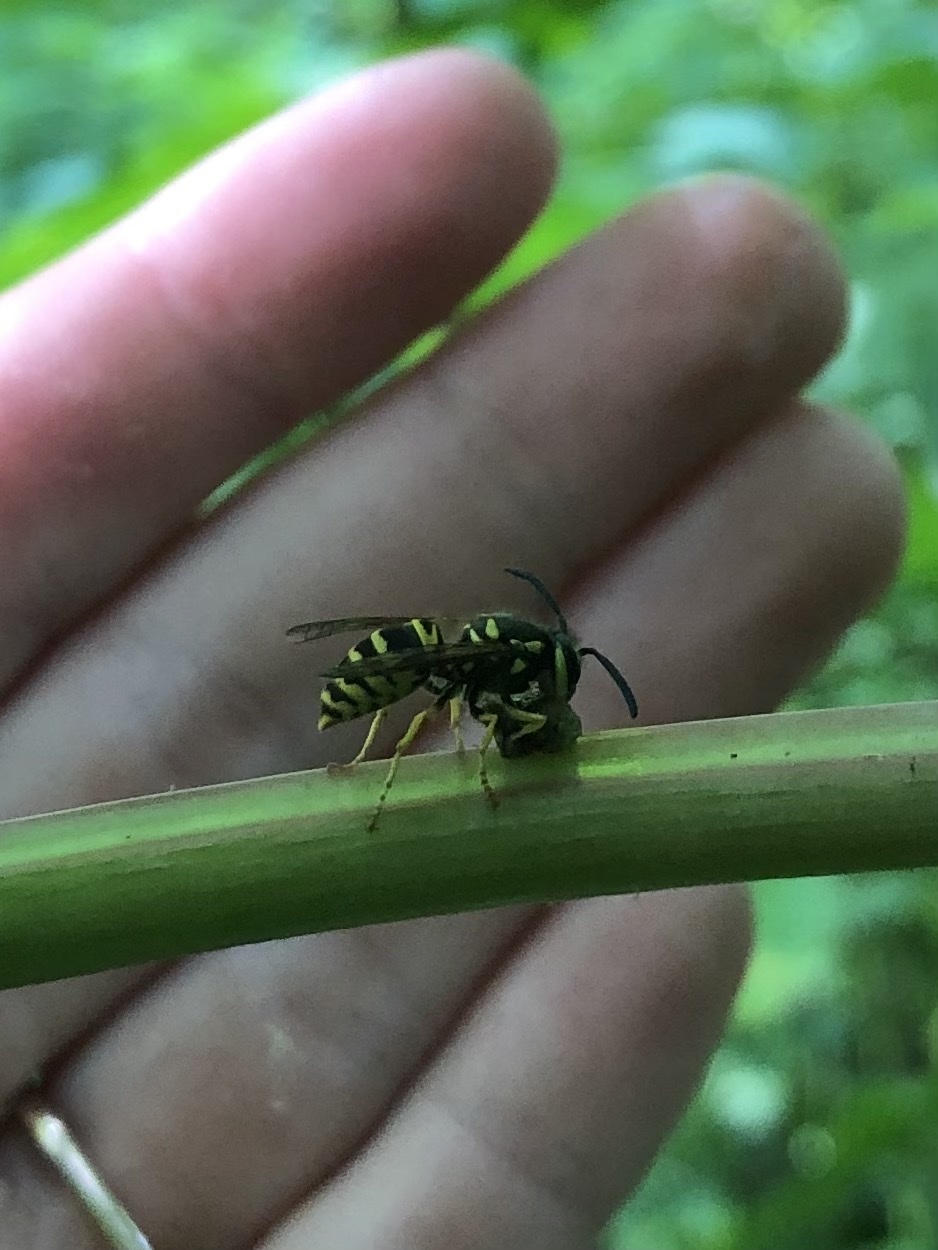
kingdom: Animalia
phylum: Arthropoda
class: Insecta
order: Hymenoptera
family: Vespidae
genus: Vespula
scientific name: Vespula maculifrons
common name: Eastern yellowjacket
